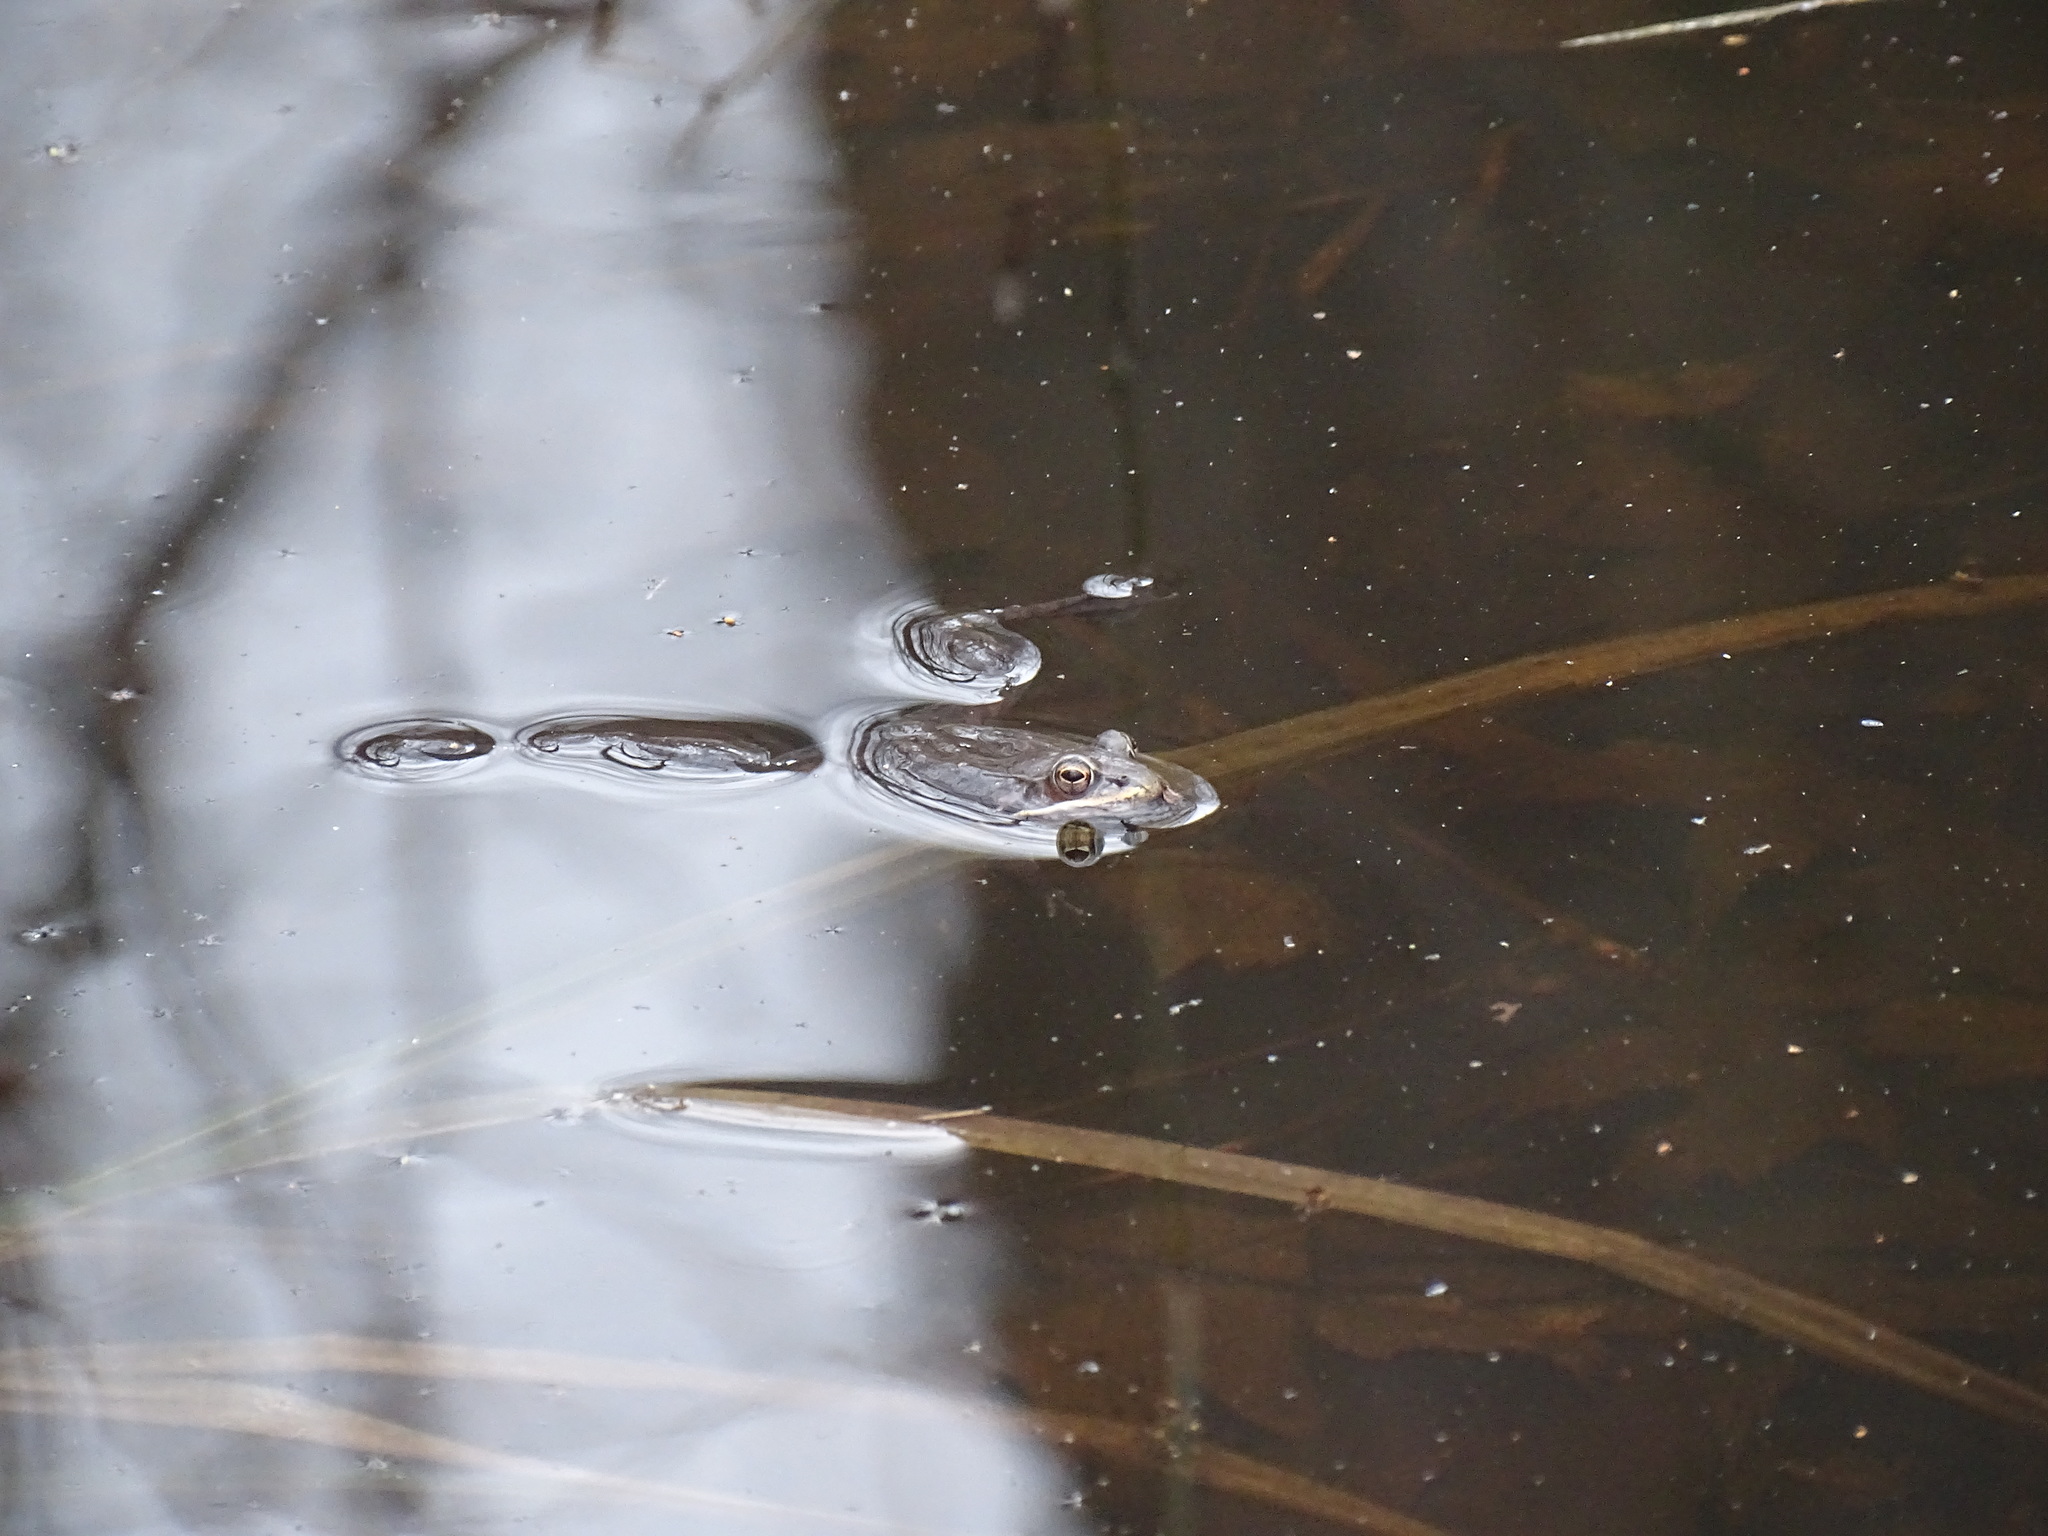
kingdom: Animalia
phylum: Chordata
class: Amphibia
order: Anura
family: Ranidae
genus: Lithobates
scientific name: Lithobates sylvaticus
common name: Wood frog
